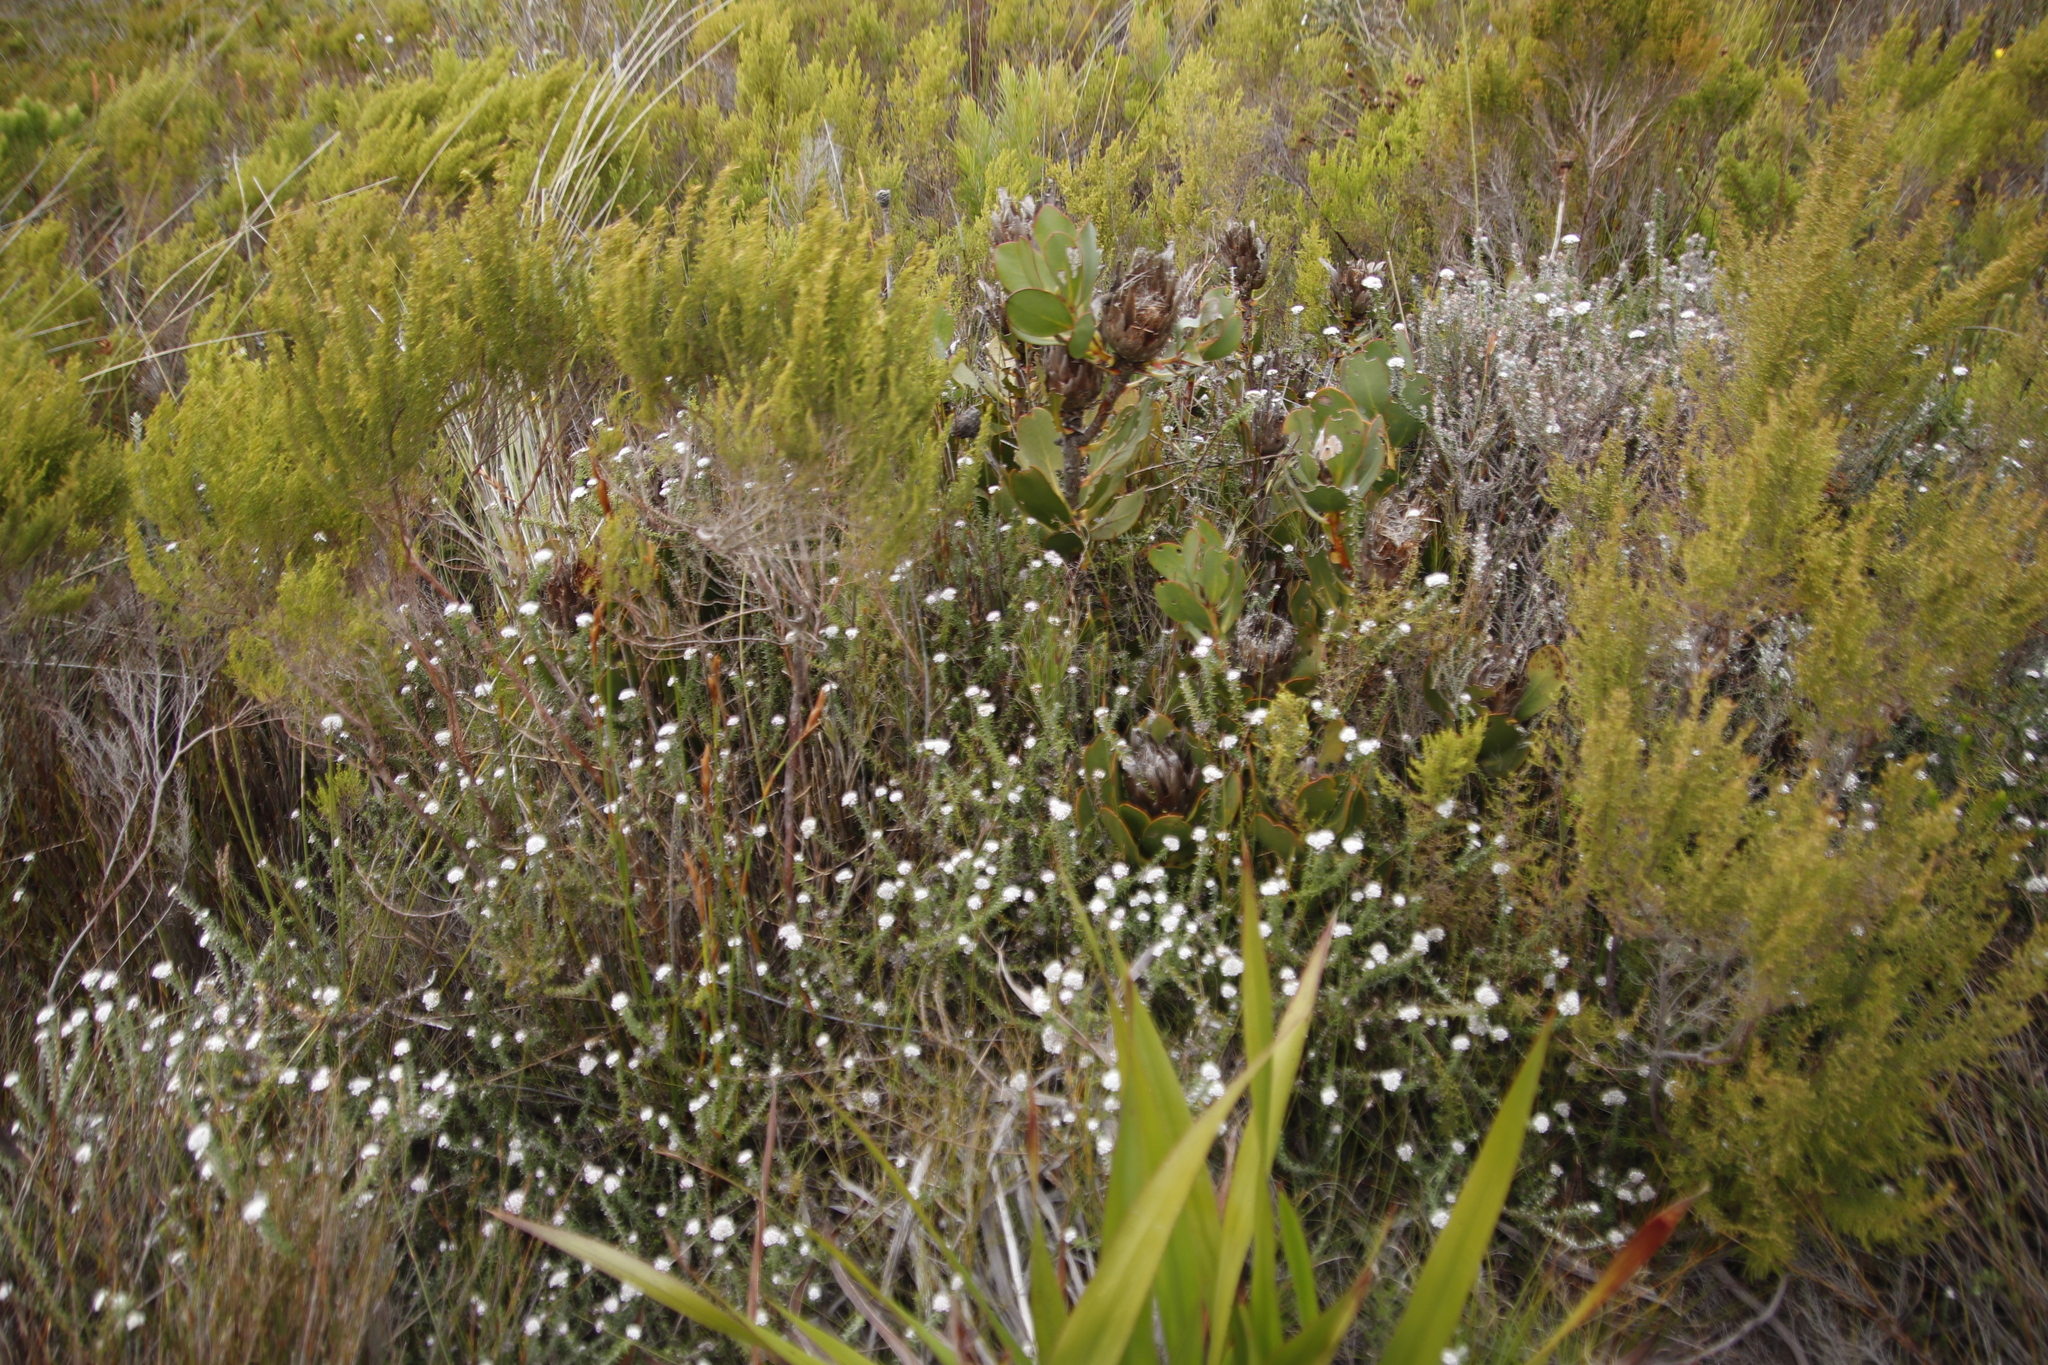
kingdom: Plantae
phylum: Tracheophyta
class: Magnoliopsida
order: Proteales
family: Proteaceae
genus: Protea
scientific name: Protea speciosa
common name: Brown-beard sugarbush
